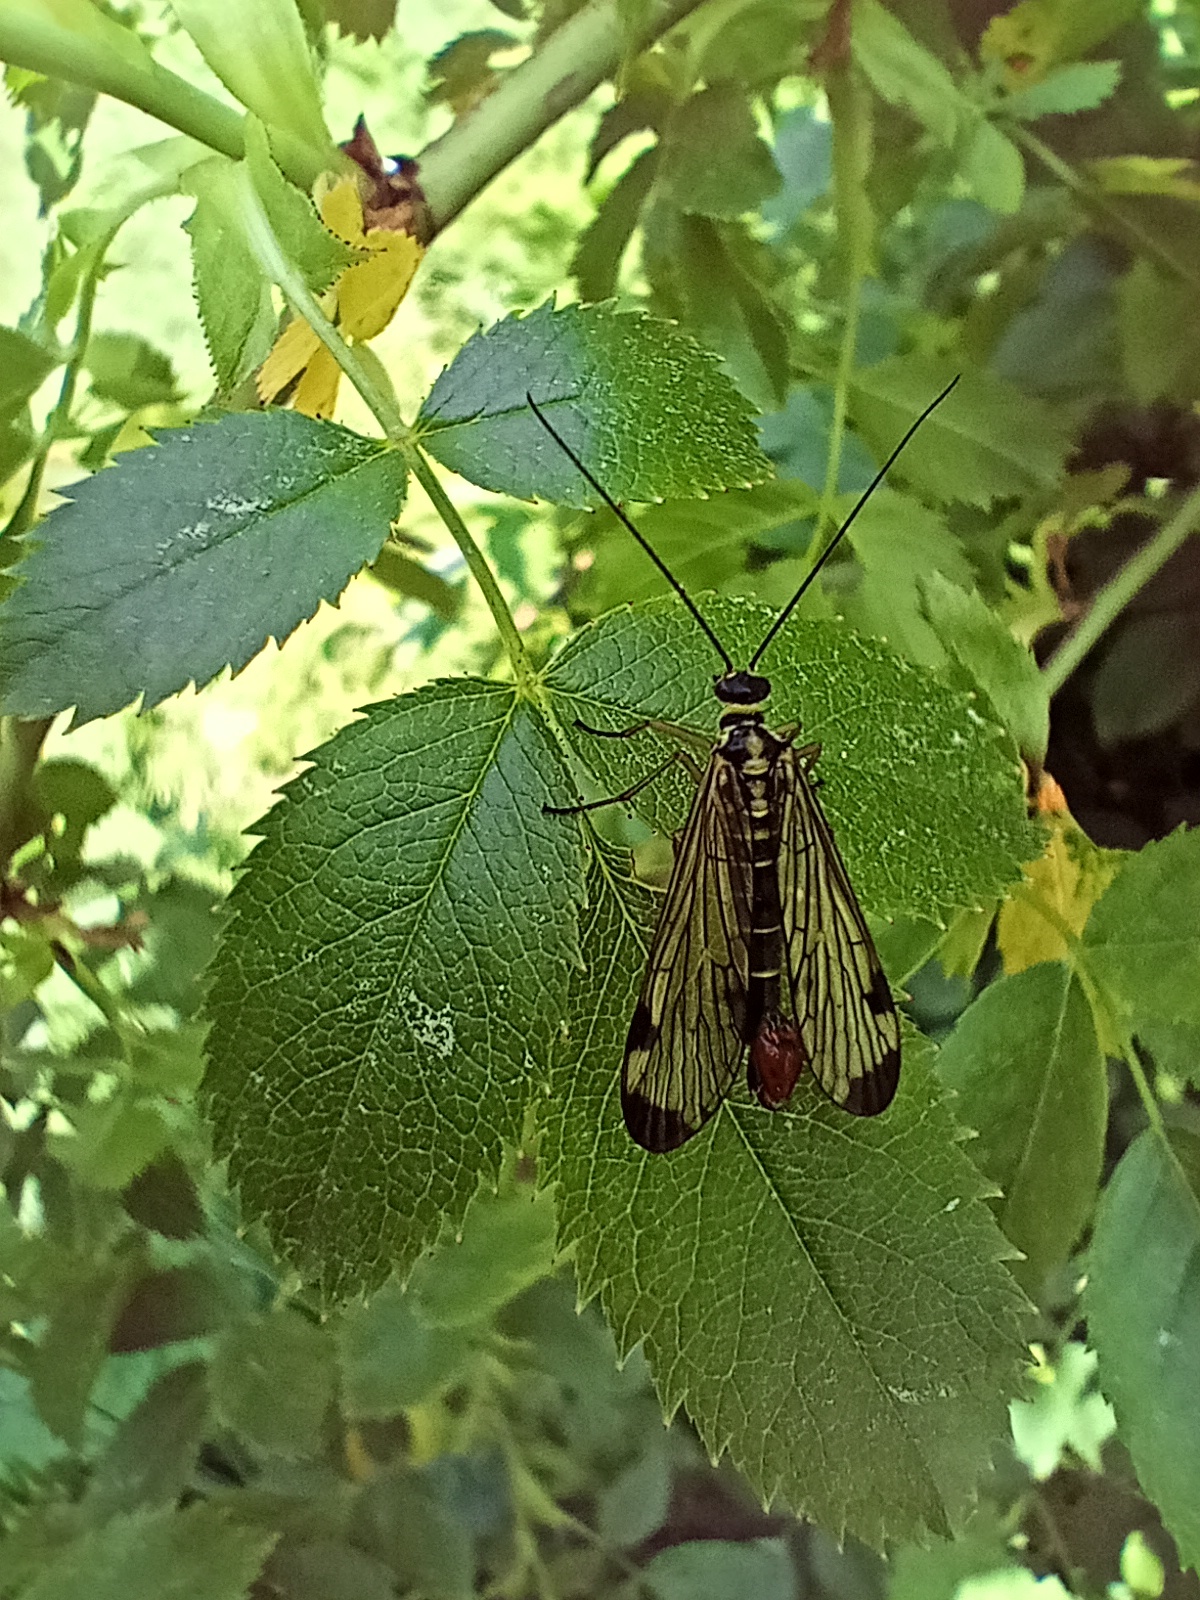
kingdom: Animalia
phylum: Arthropoda
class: Insecta
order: Mecoptera
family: Panorpidae
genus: Panorpa
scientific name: Panorpa communis
